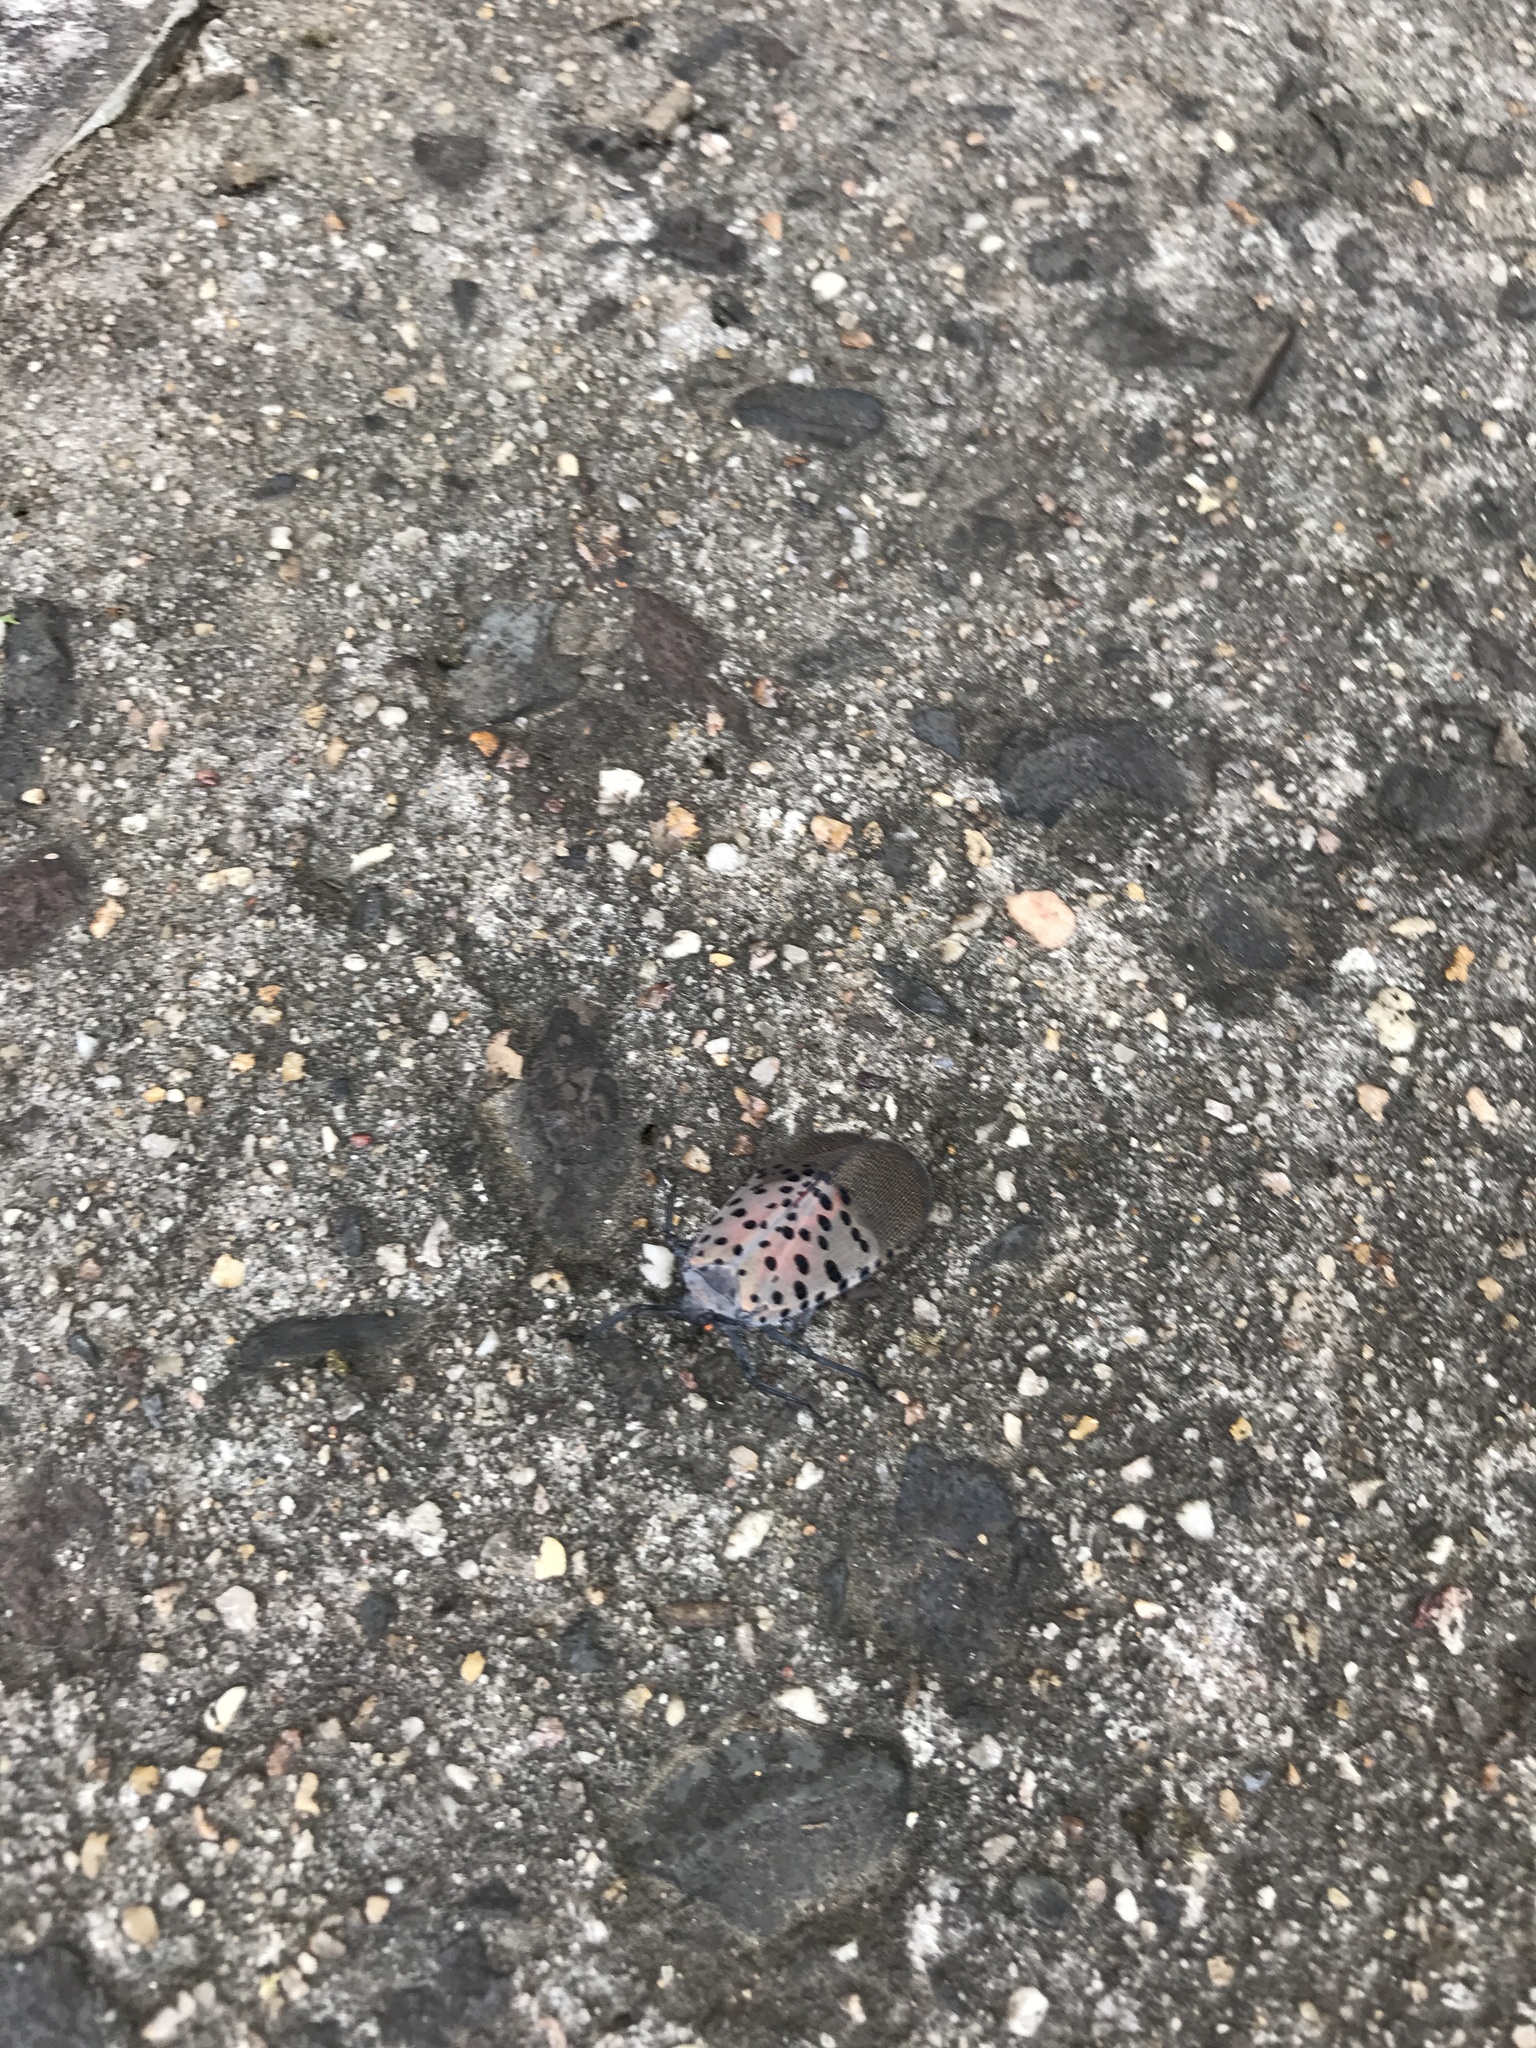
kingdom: Animalia
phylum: Arthropoda
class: Insecta
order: Hemiptera
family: Fulgoridae
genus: Lycorma
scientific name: Lycorma delicatula
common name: Spotted lanternfly
